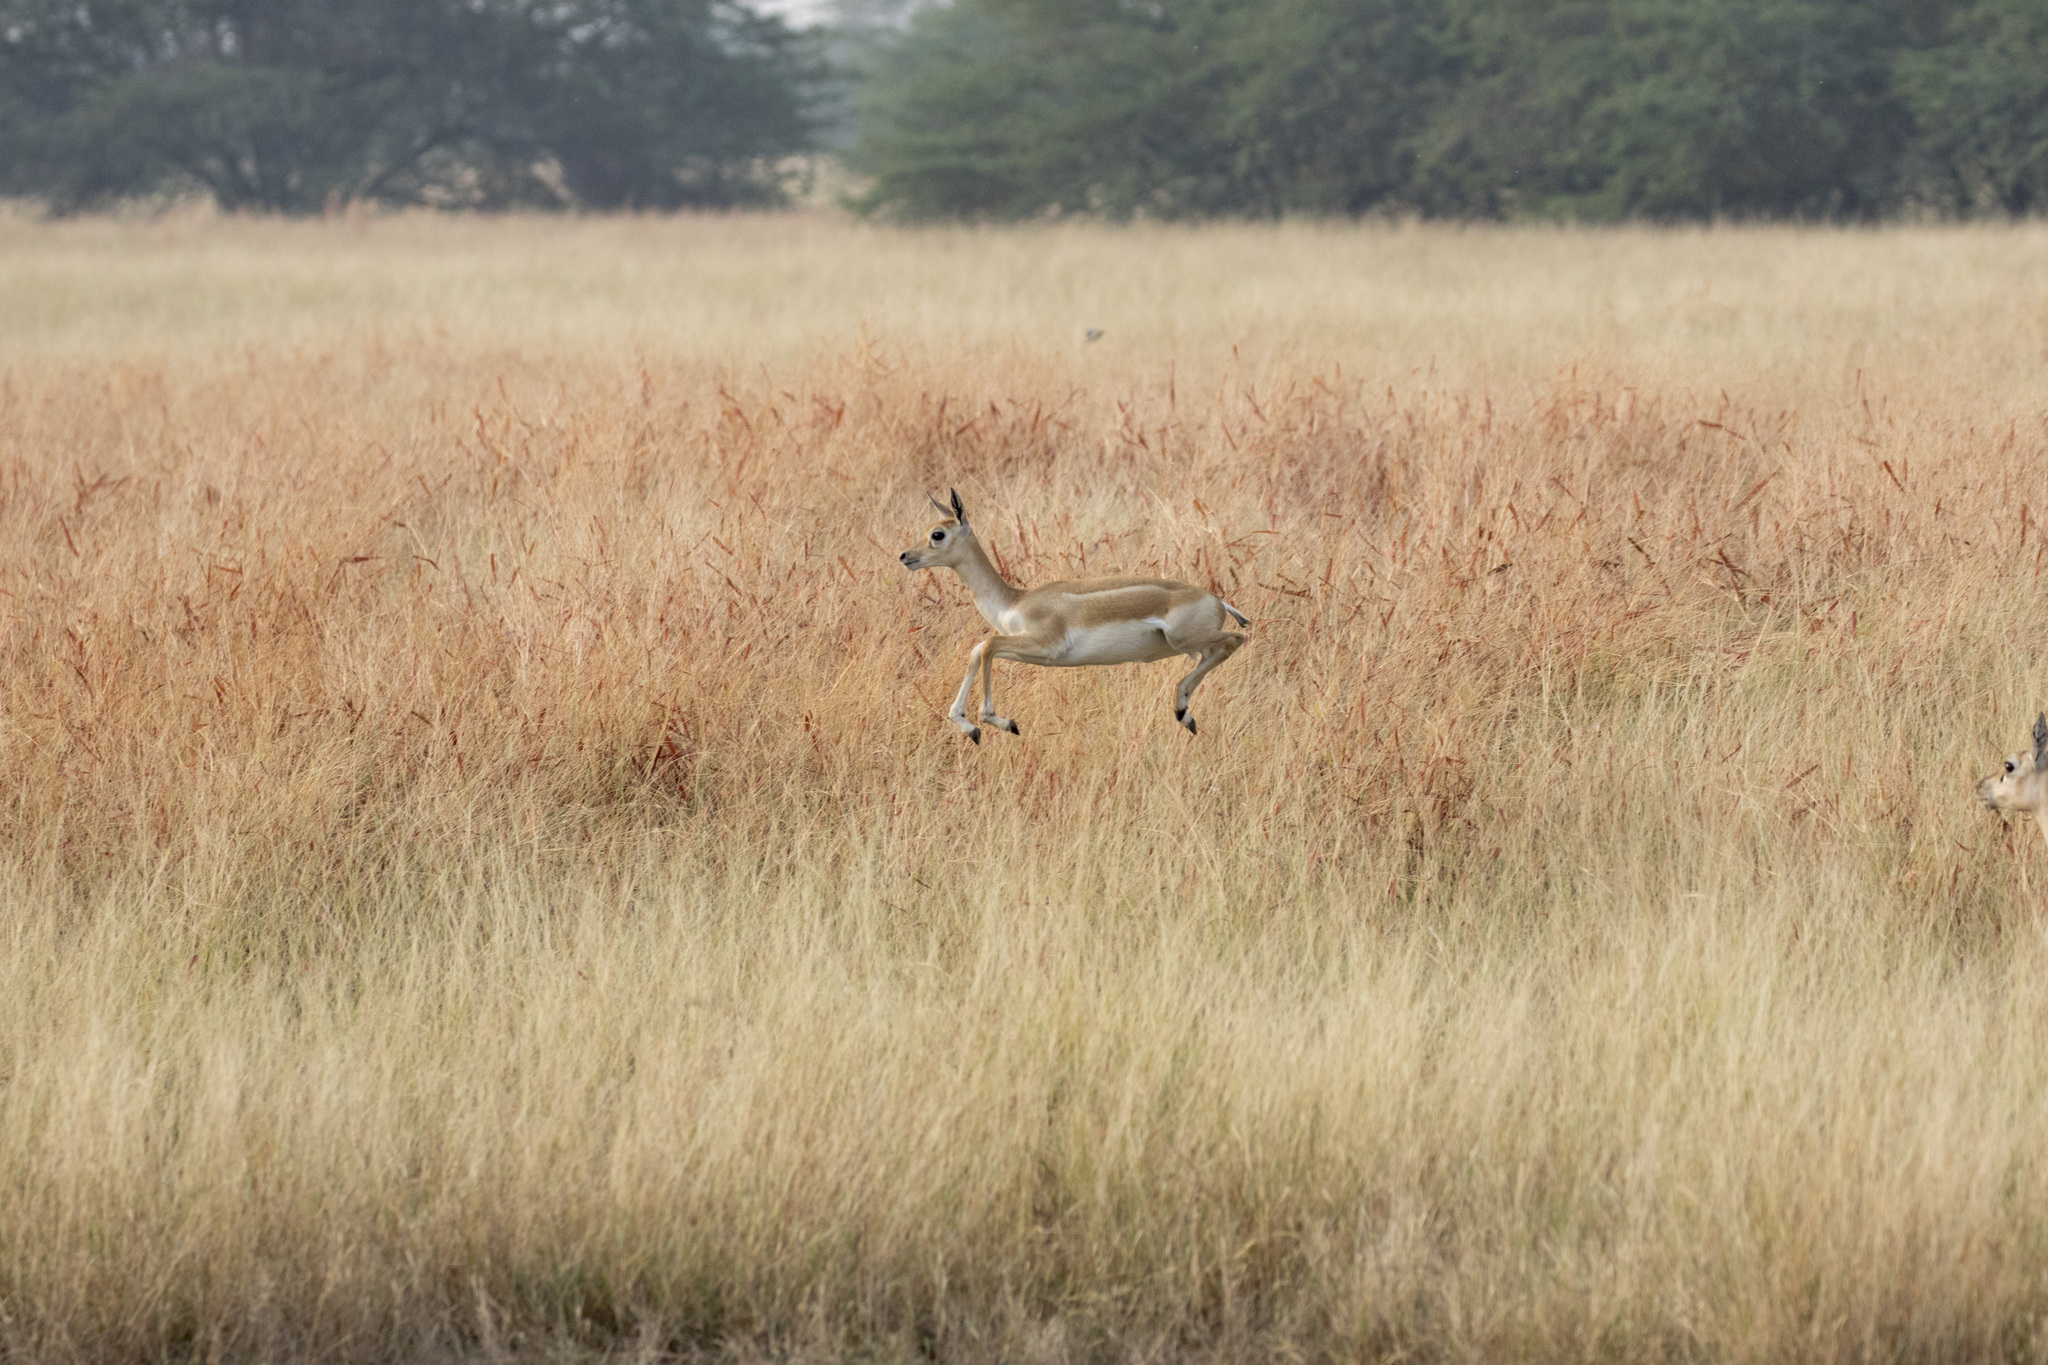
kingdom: Animalia
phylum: Chordata
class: Mammalia
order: Artiodactyla
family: Bovidae
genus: Antilope
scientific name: Antilope cervicapra
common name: Blackbuck
